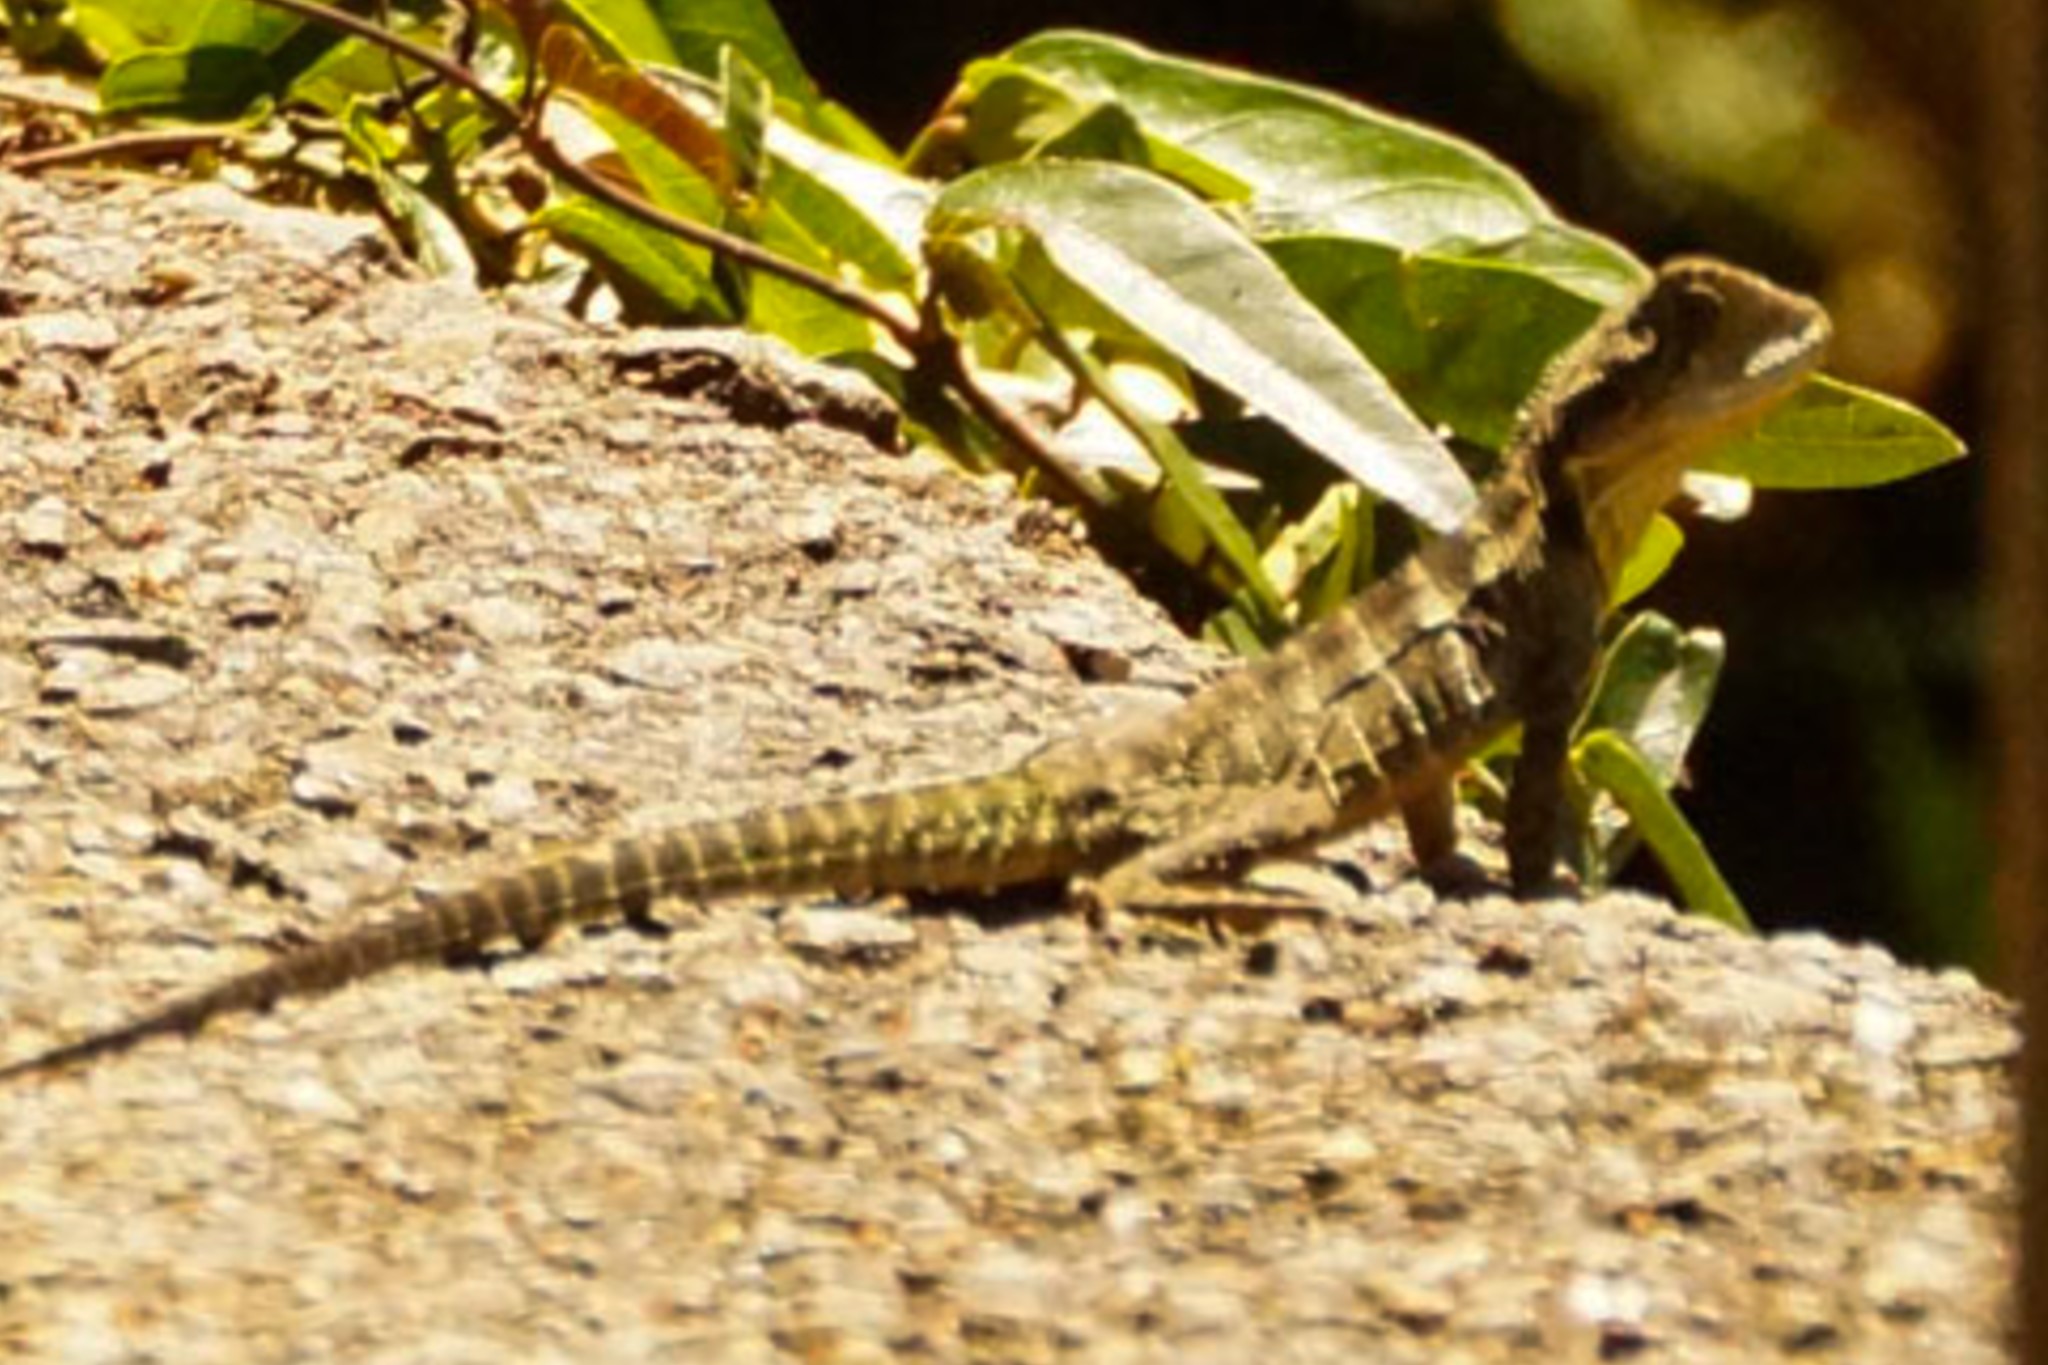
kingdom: Animalia
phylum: Chordata
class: Squamata
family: Agamidae
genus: Intellagama
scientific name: Intellagama lesueurii
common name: Eastern water dragon
